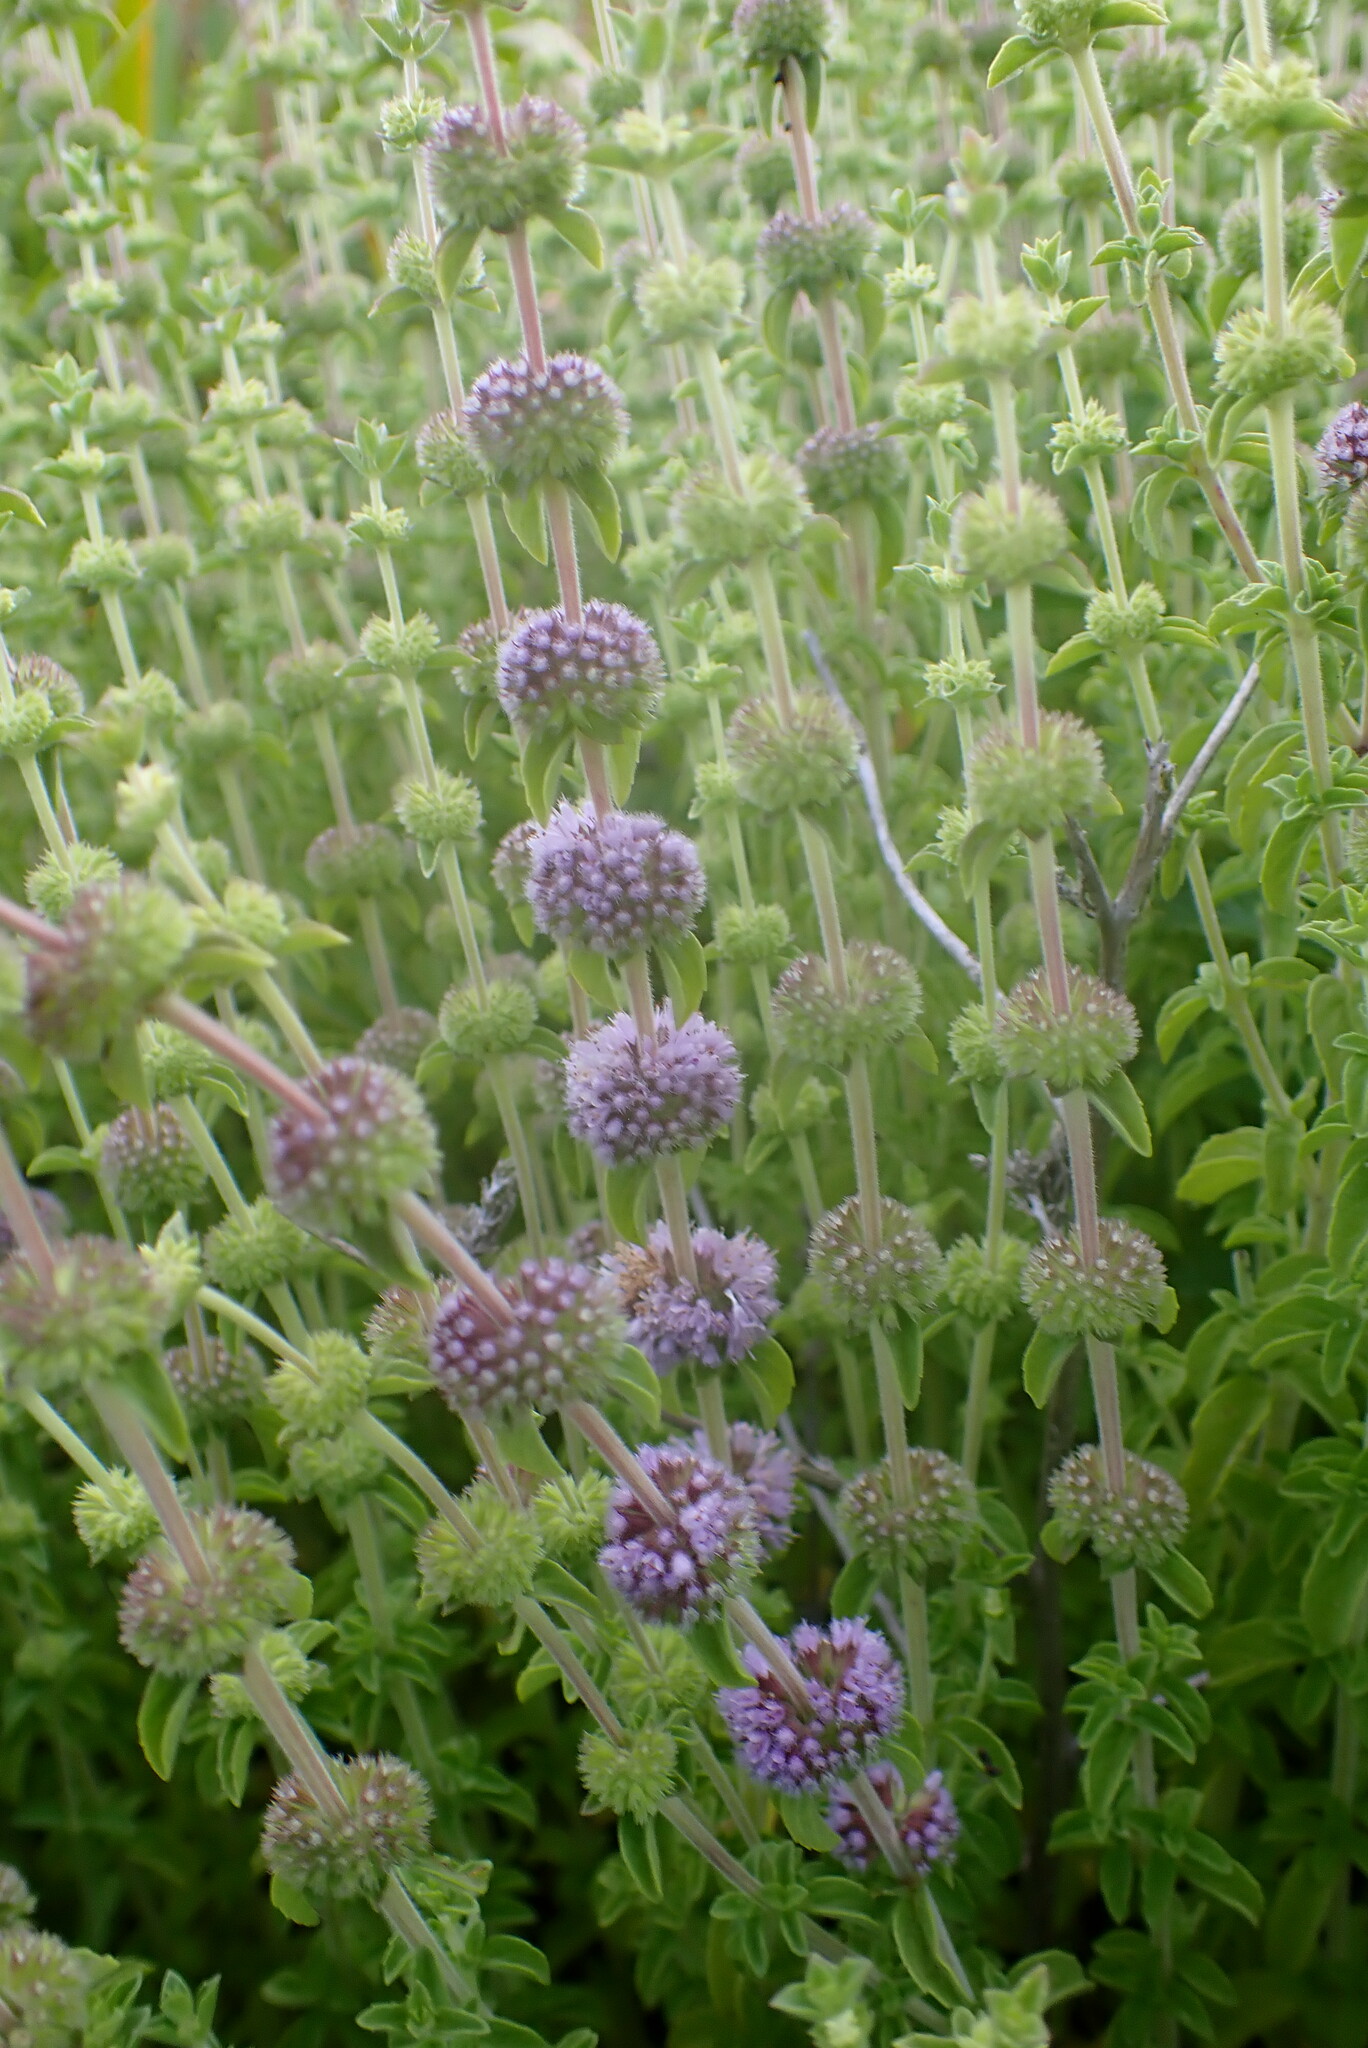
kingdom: Plantae
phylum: Tracheophyta
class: Magnoliopsida
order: Lamiales
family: Lamiaceae
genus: Mentha
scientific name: Mentha pulegium
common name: Pennyroyal
